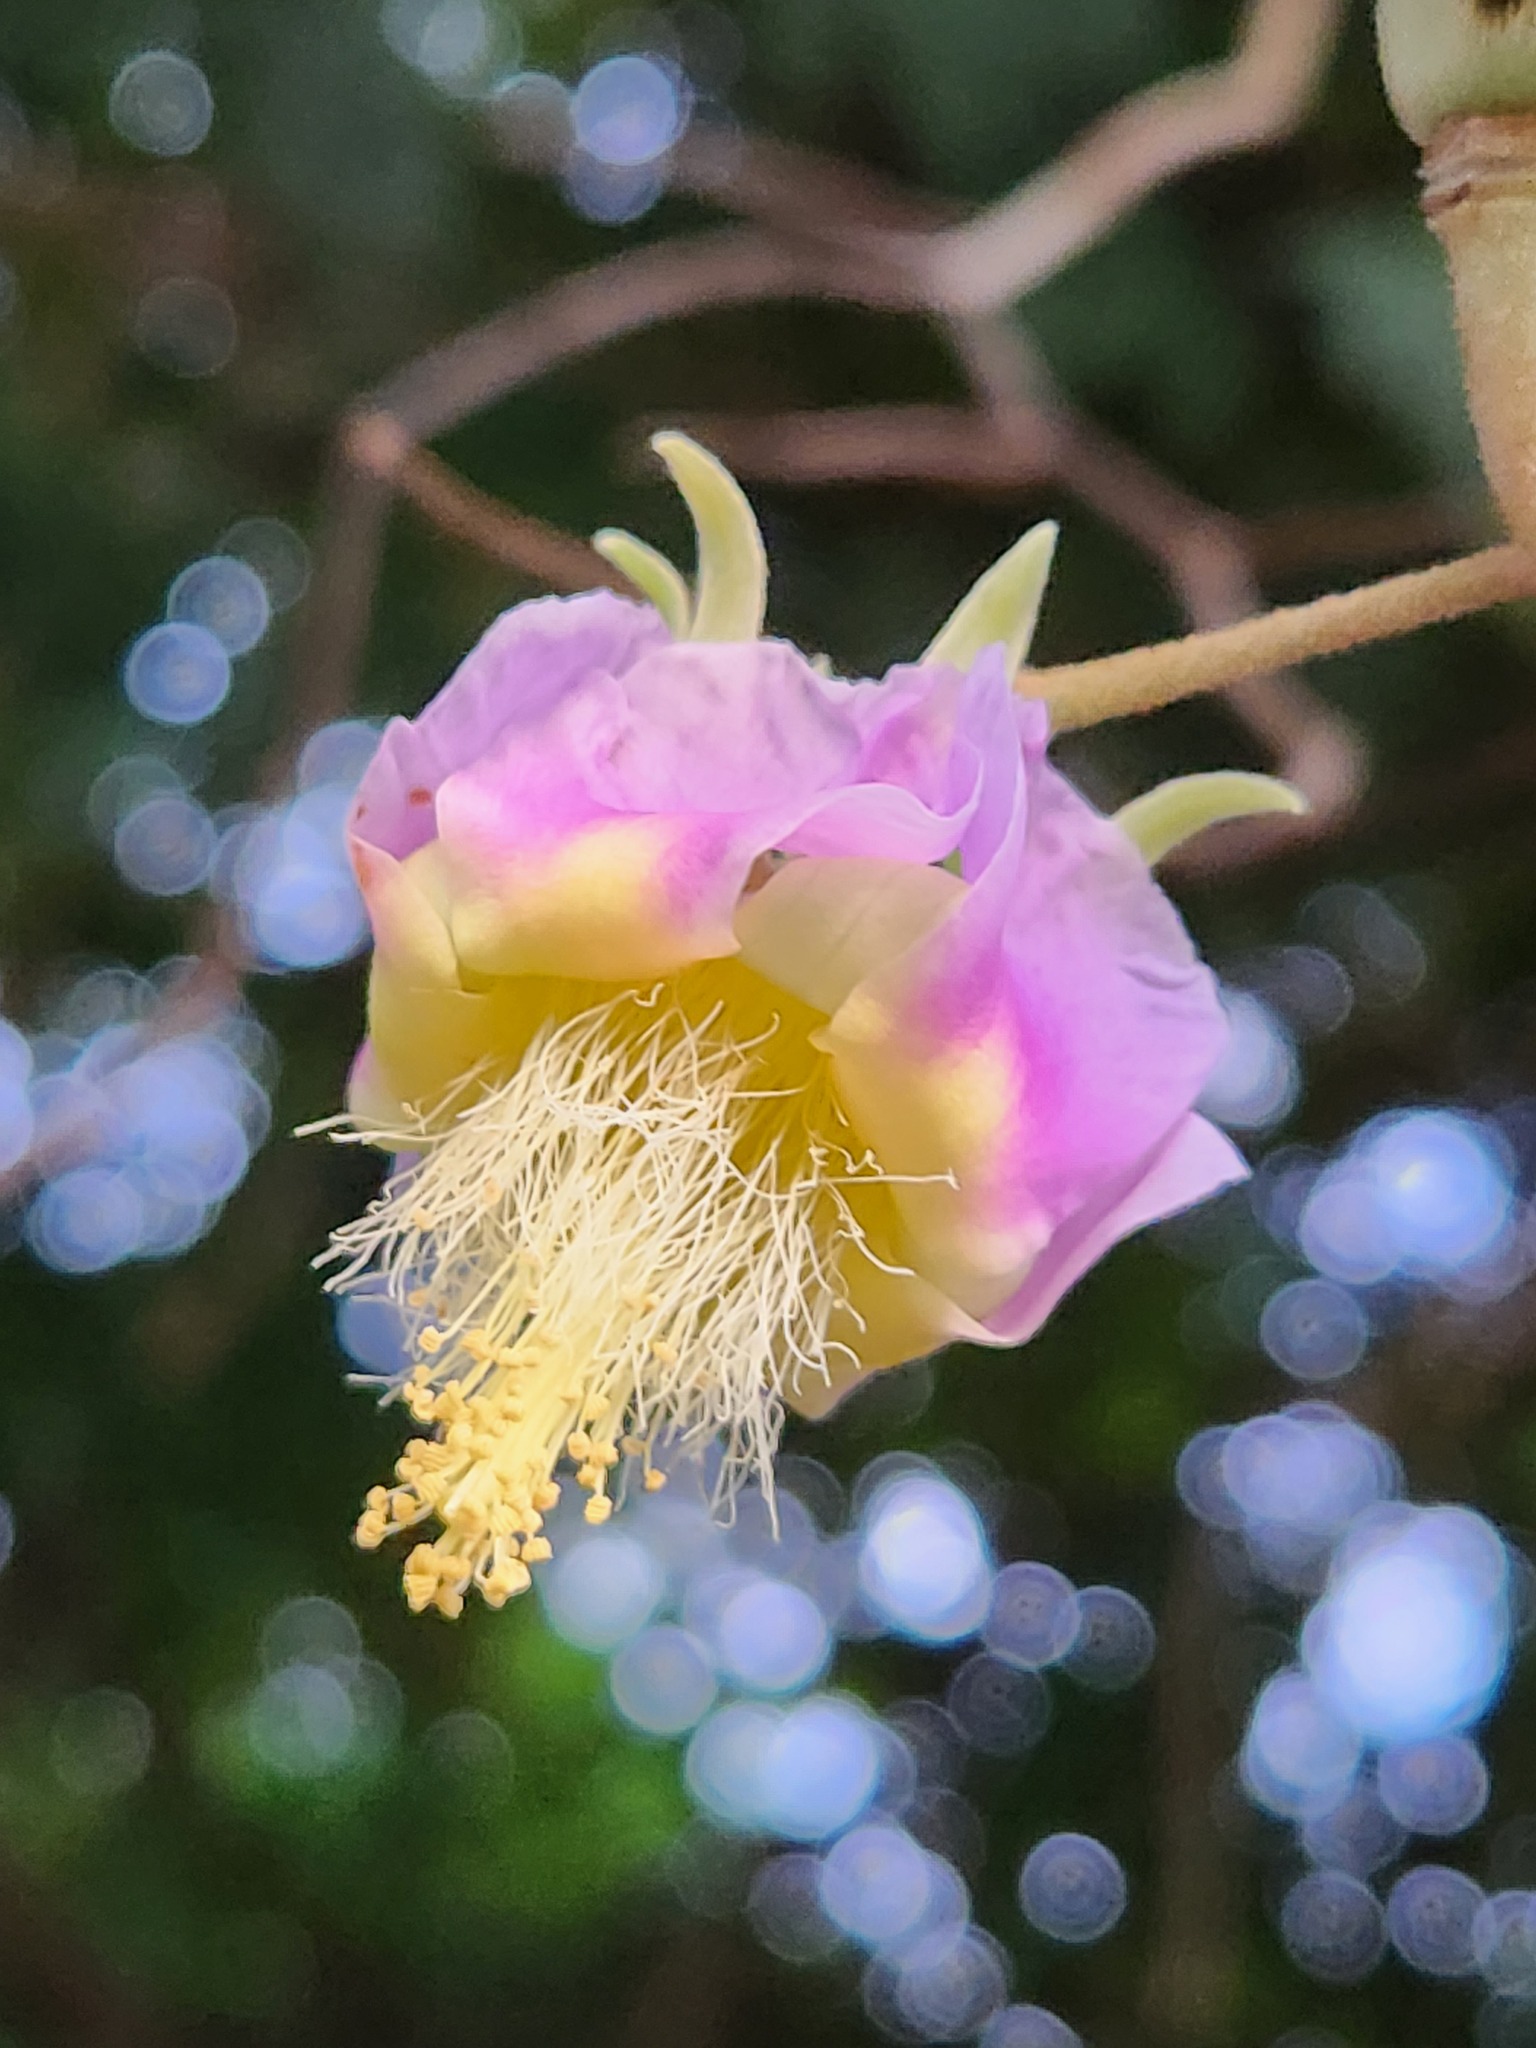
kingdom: Plantae
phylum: Tracheophyta
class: Magnoliopsida
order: Malvales
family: Malvaceae
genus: Luehea
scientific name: Luehea divaricata
